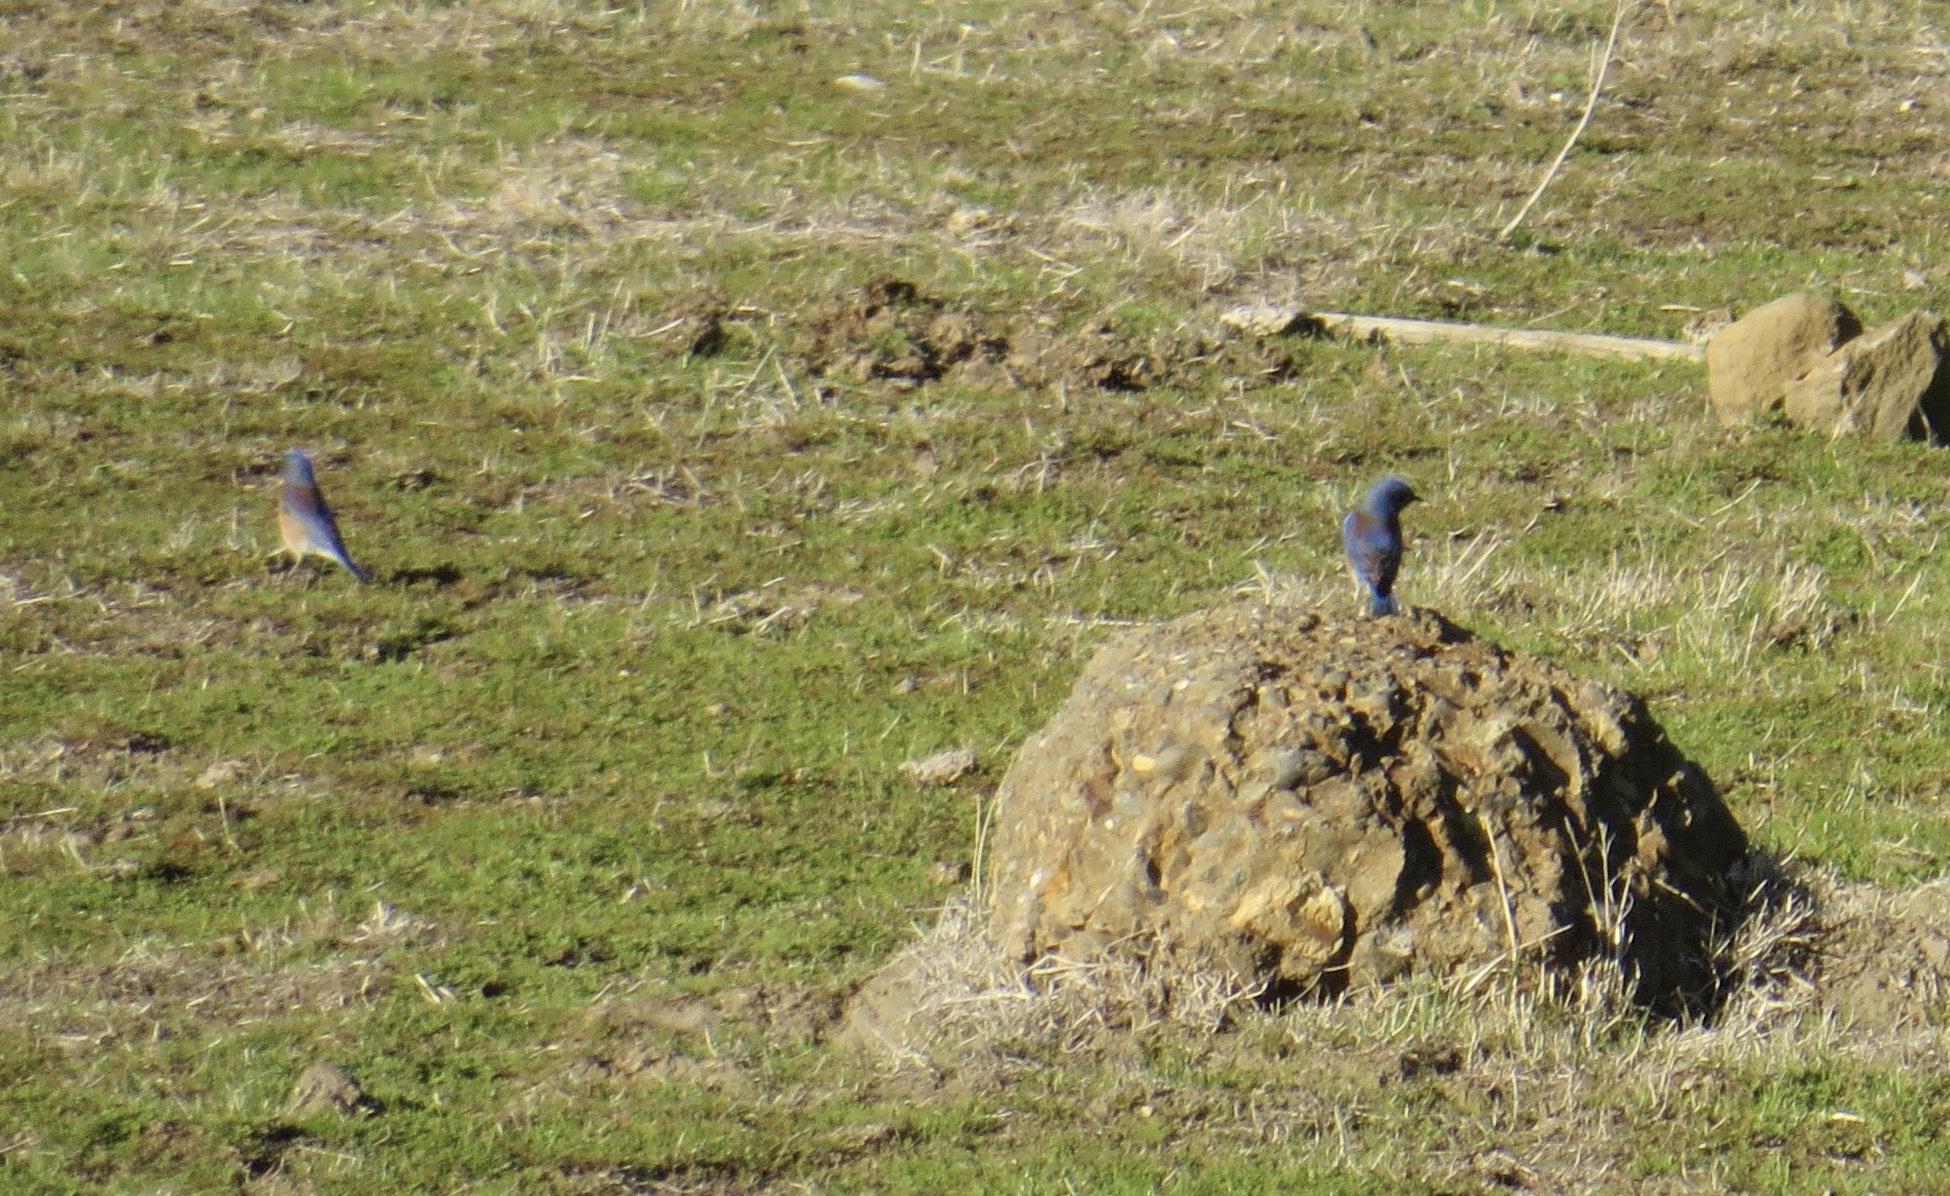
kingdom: Animalia
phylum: Chordata
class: Aves
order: Passeriformes
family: Turdidae
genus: Sialia
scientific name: Sialia mexicana
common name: Western bluebird
